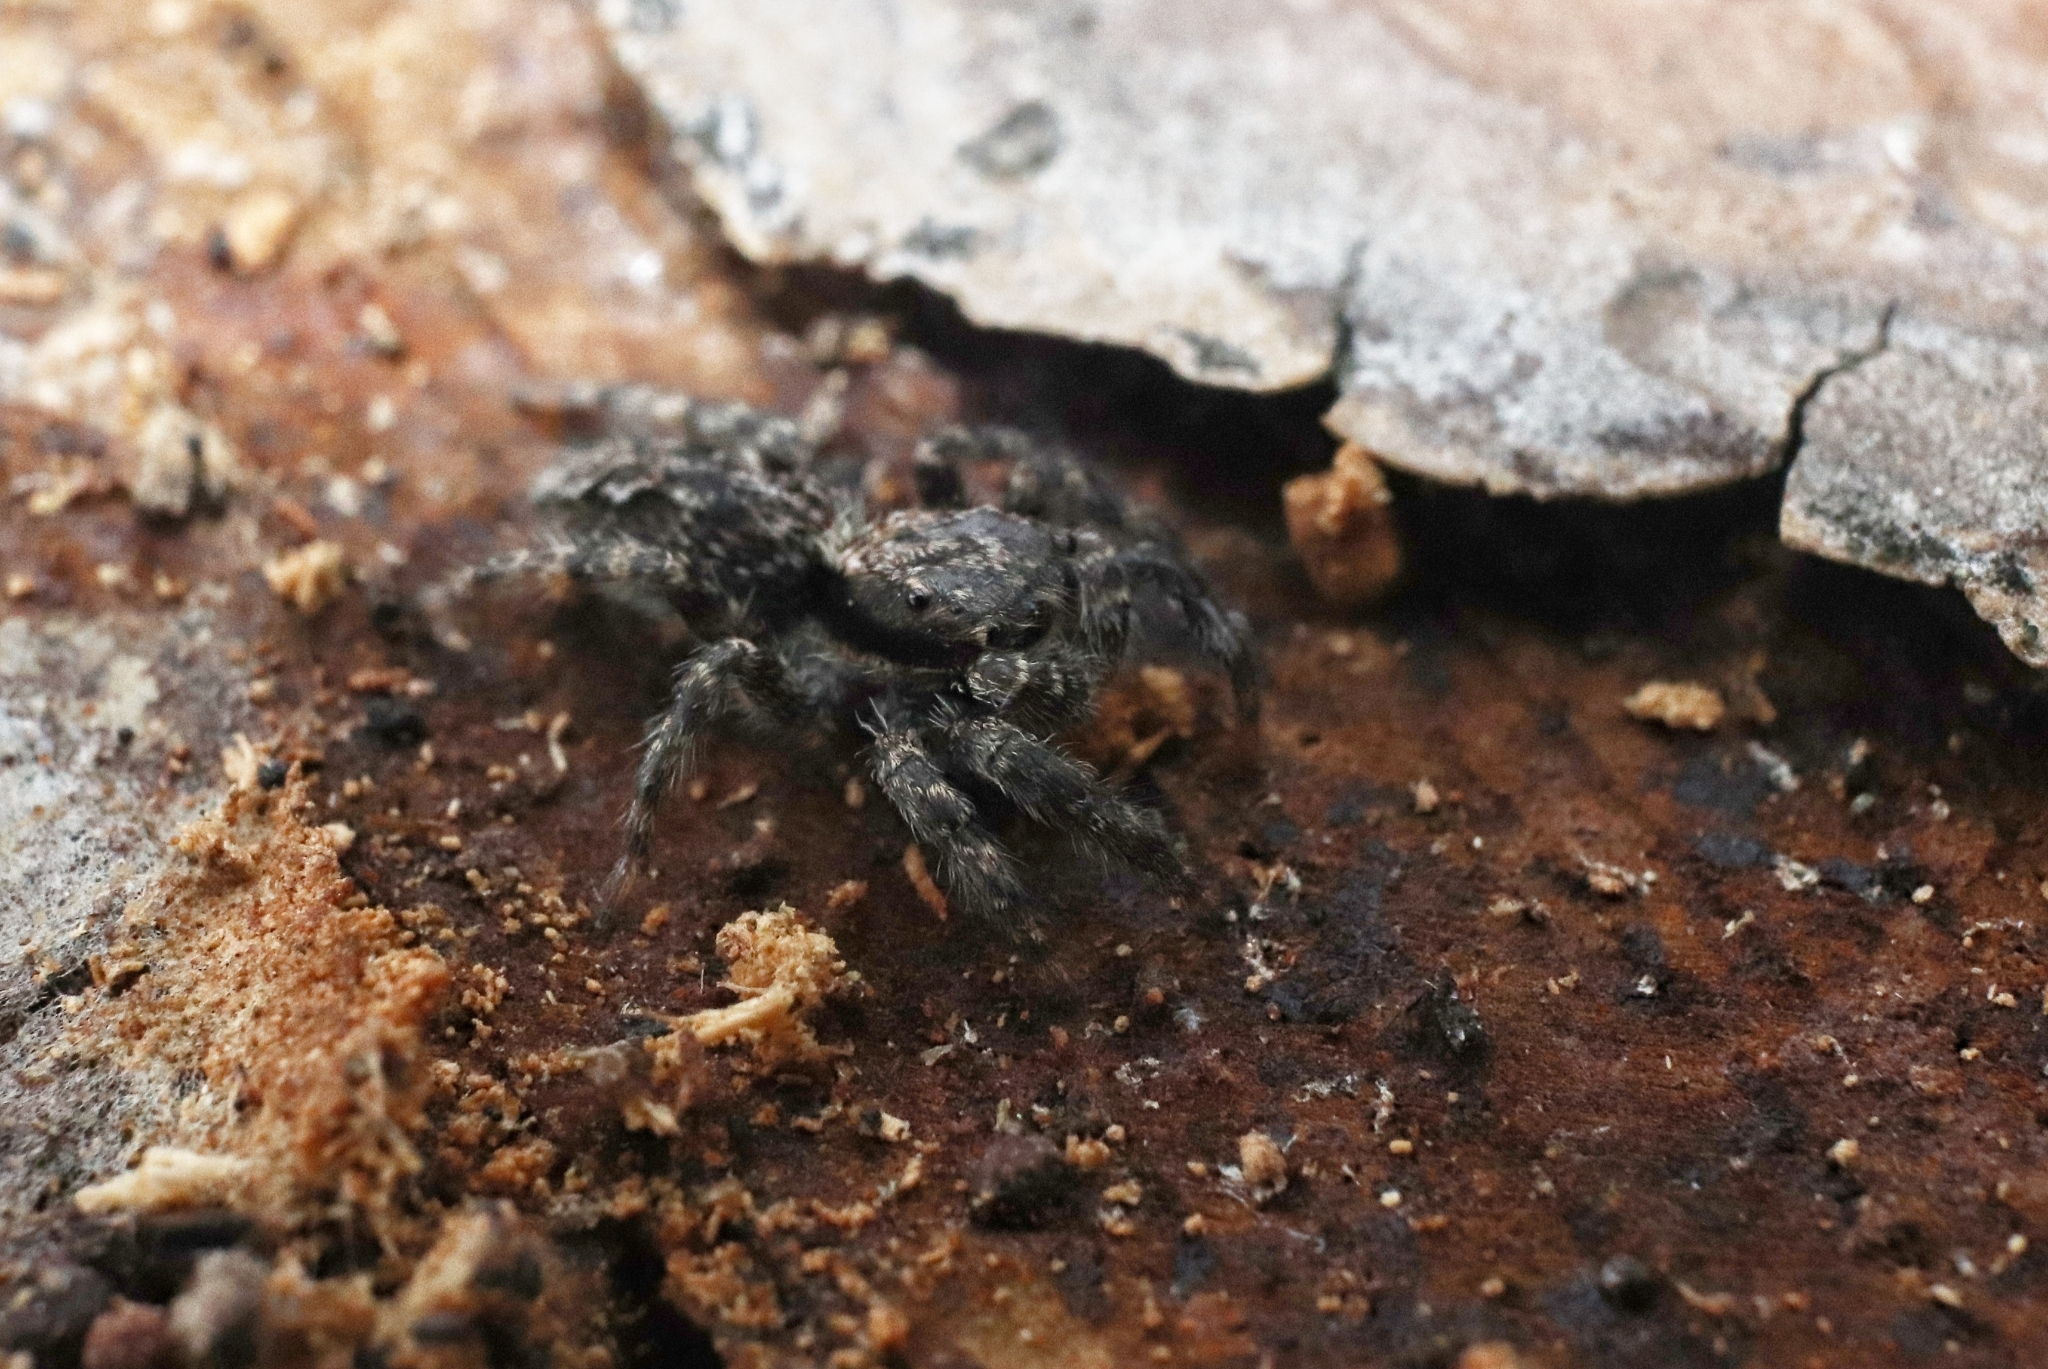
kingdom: Animalia
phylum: Arthropoda
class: Arachnida
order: Araneae
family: Salticidae
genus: Platycryptus
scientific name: Platycryptus californicus
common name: Jumping spiders
